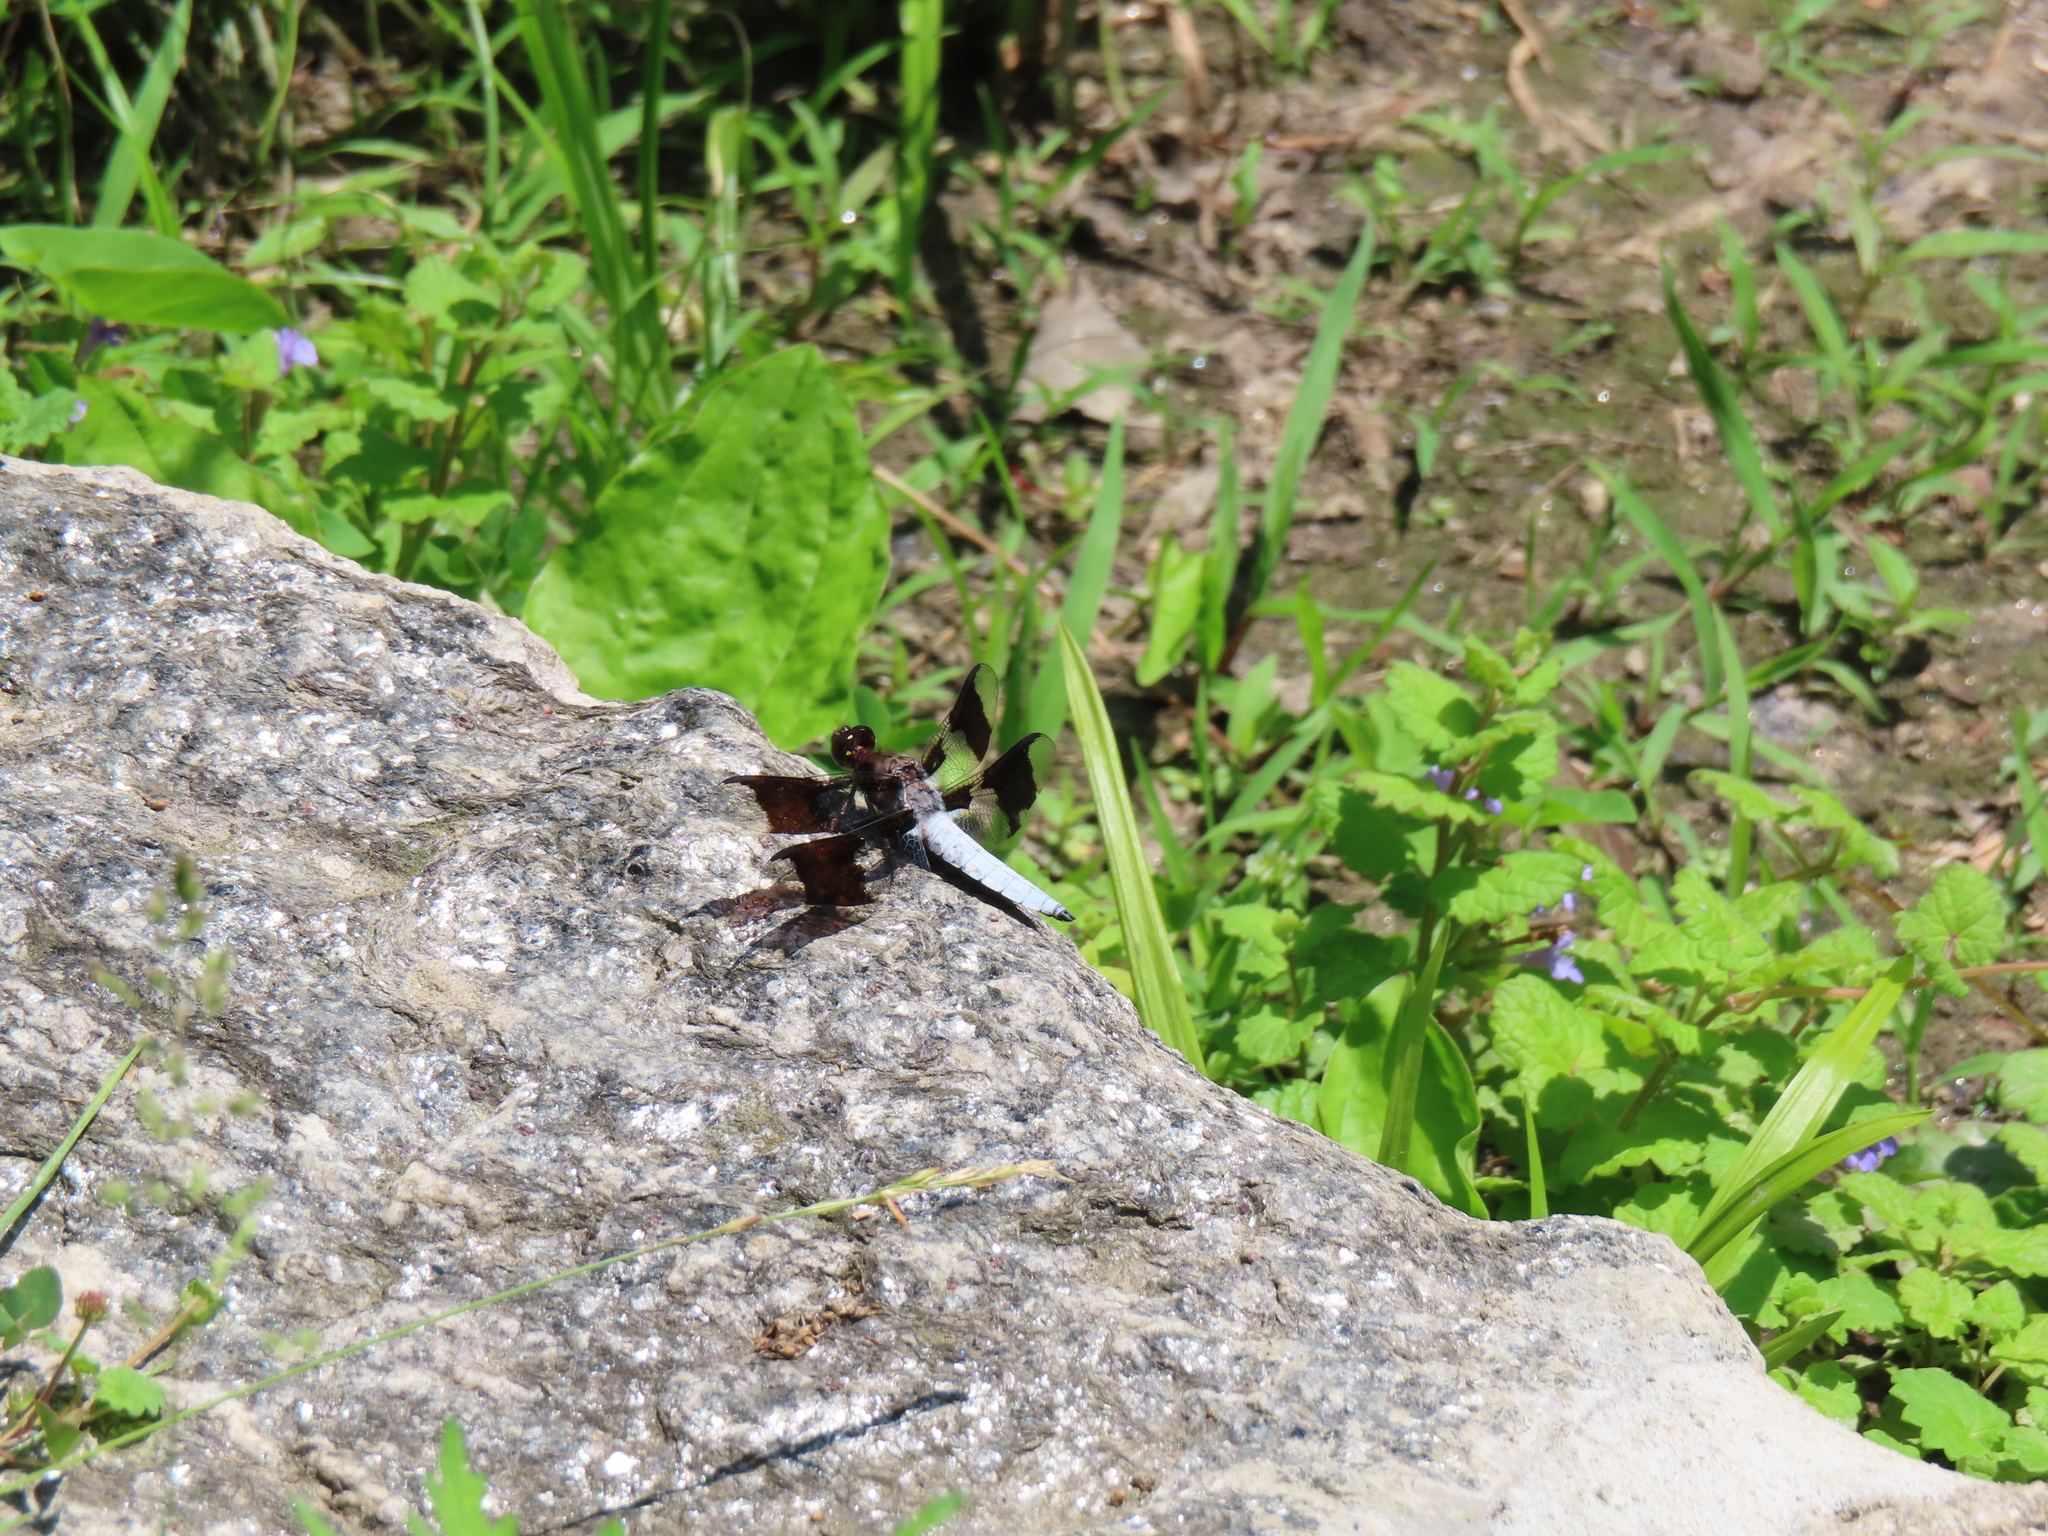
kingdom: Animalia
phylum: Arthropoda
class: Insecta
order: Odonata
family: Libellulidae
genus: Plathemis
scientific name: Plathemis lydia
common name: Common whitetail
